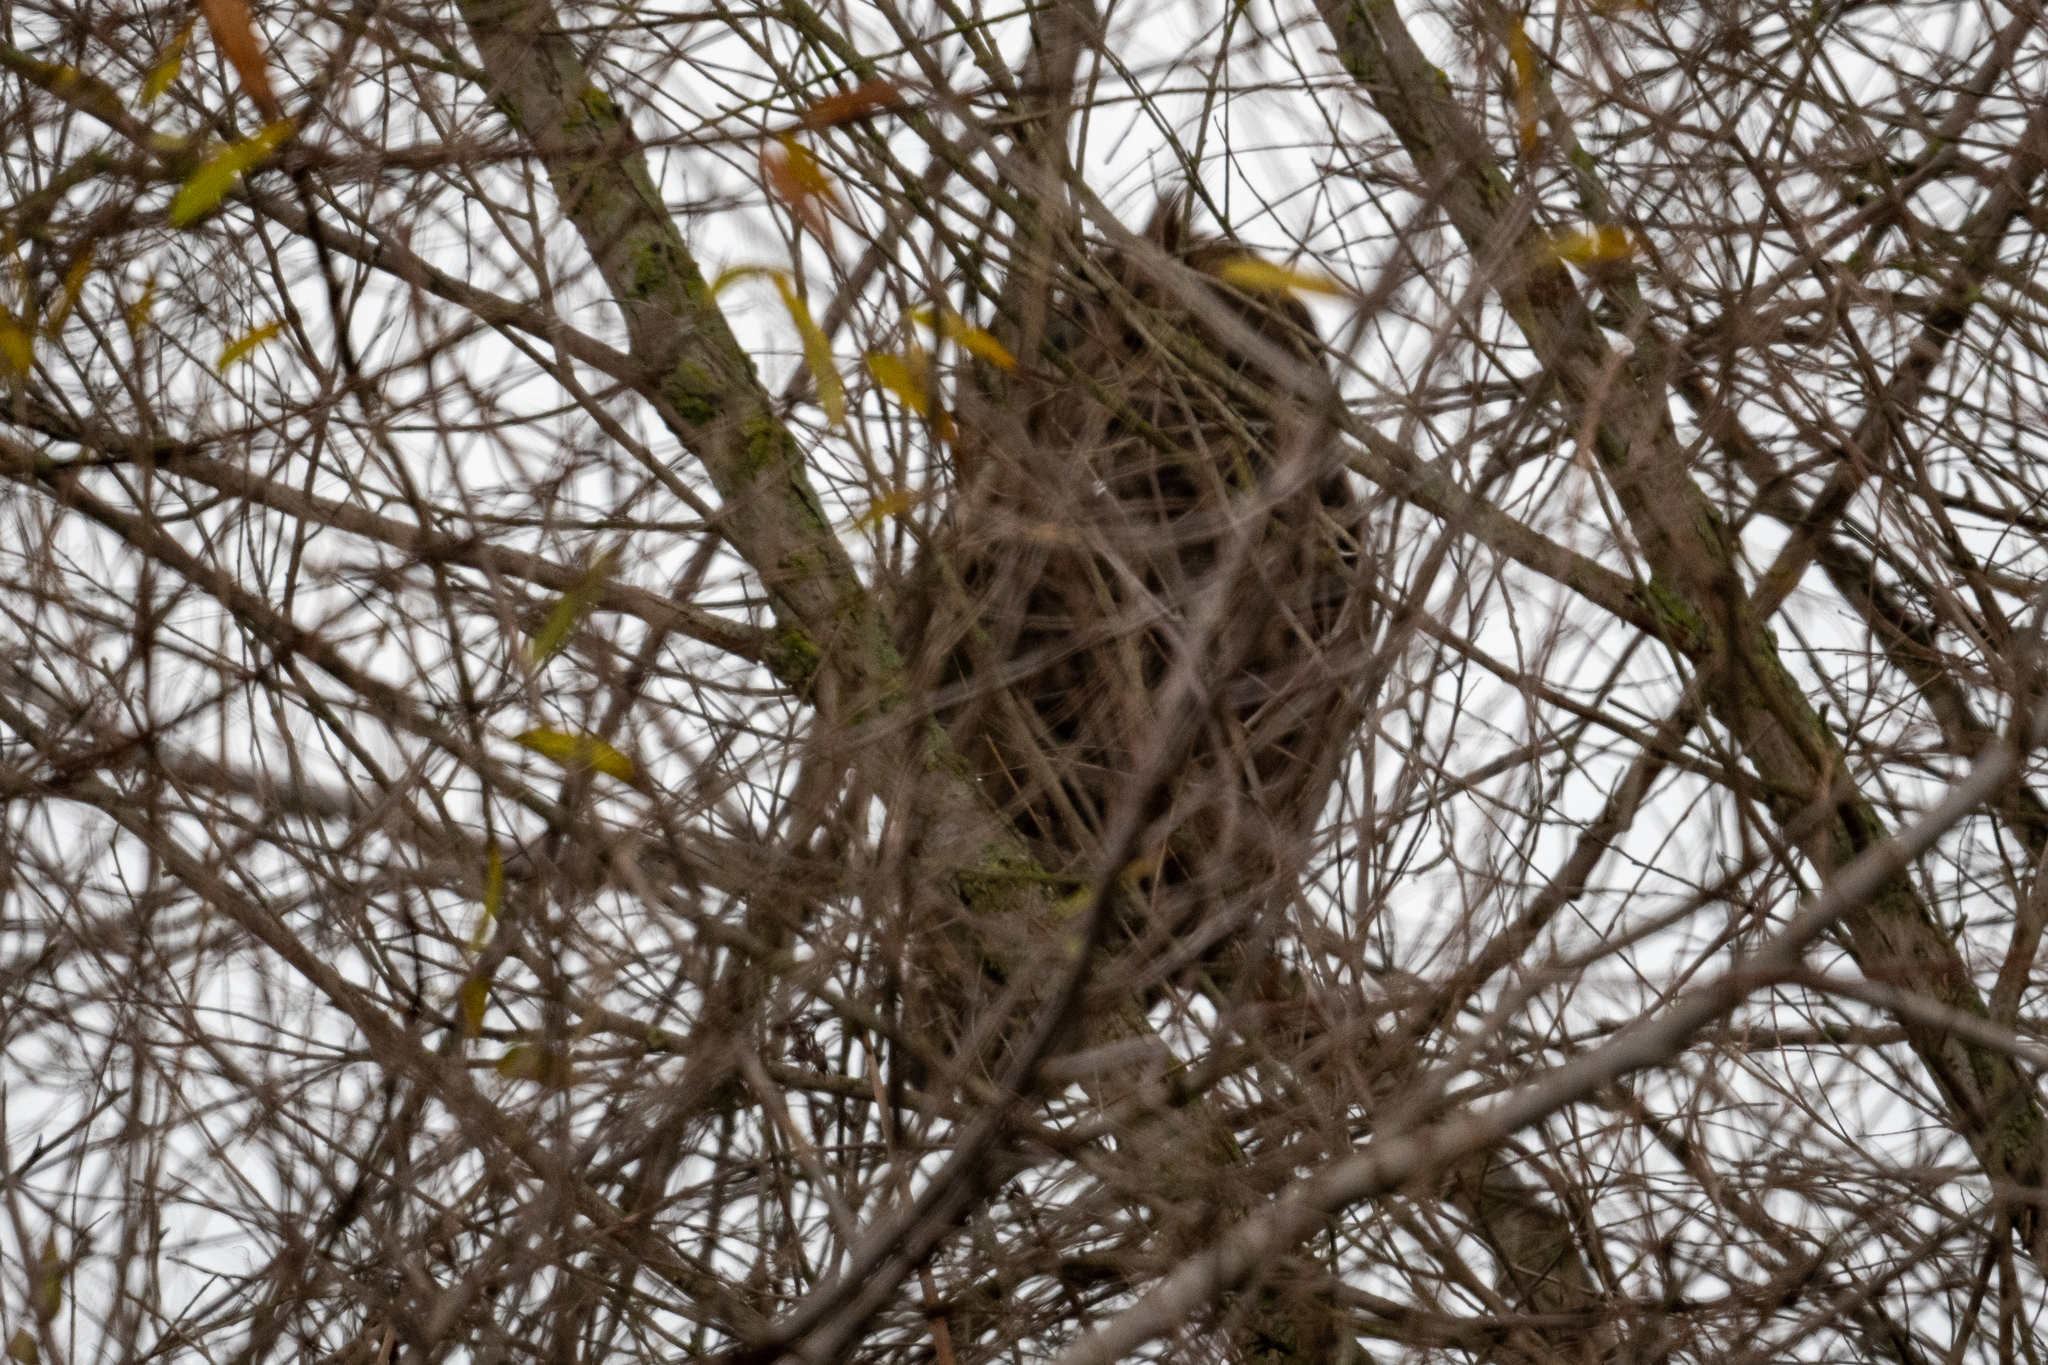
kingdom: Animalia
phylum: Chordata
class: Aves
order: Strigiformes
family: Strigidae
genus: Bubo
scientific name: Bubo virginianus
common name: Great horned owl
